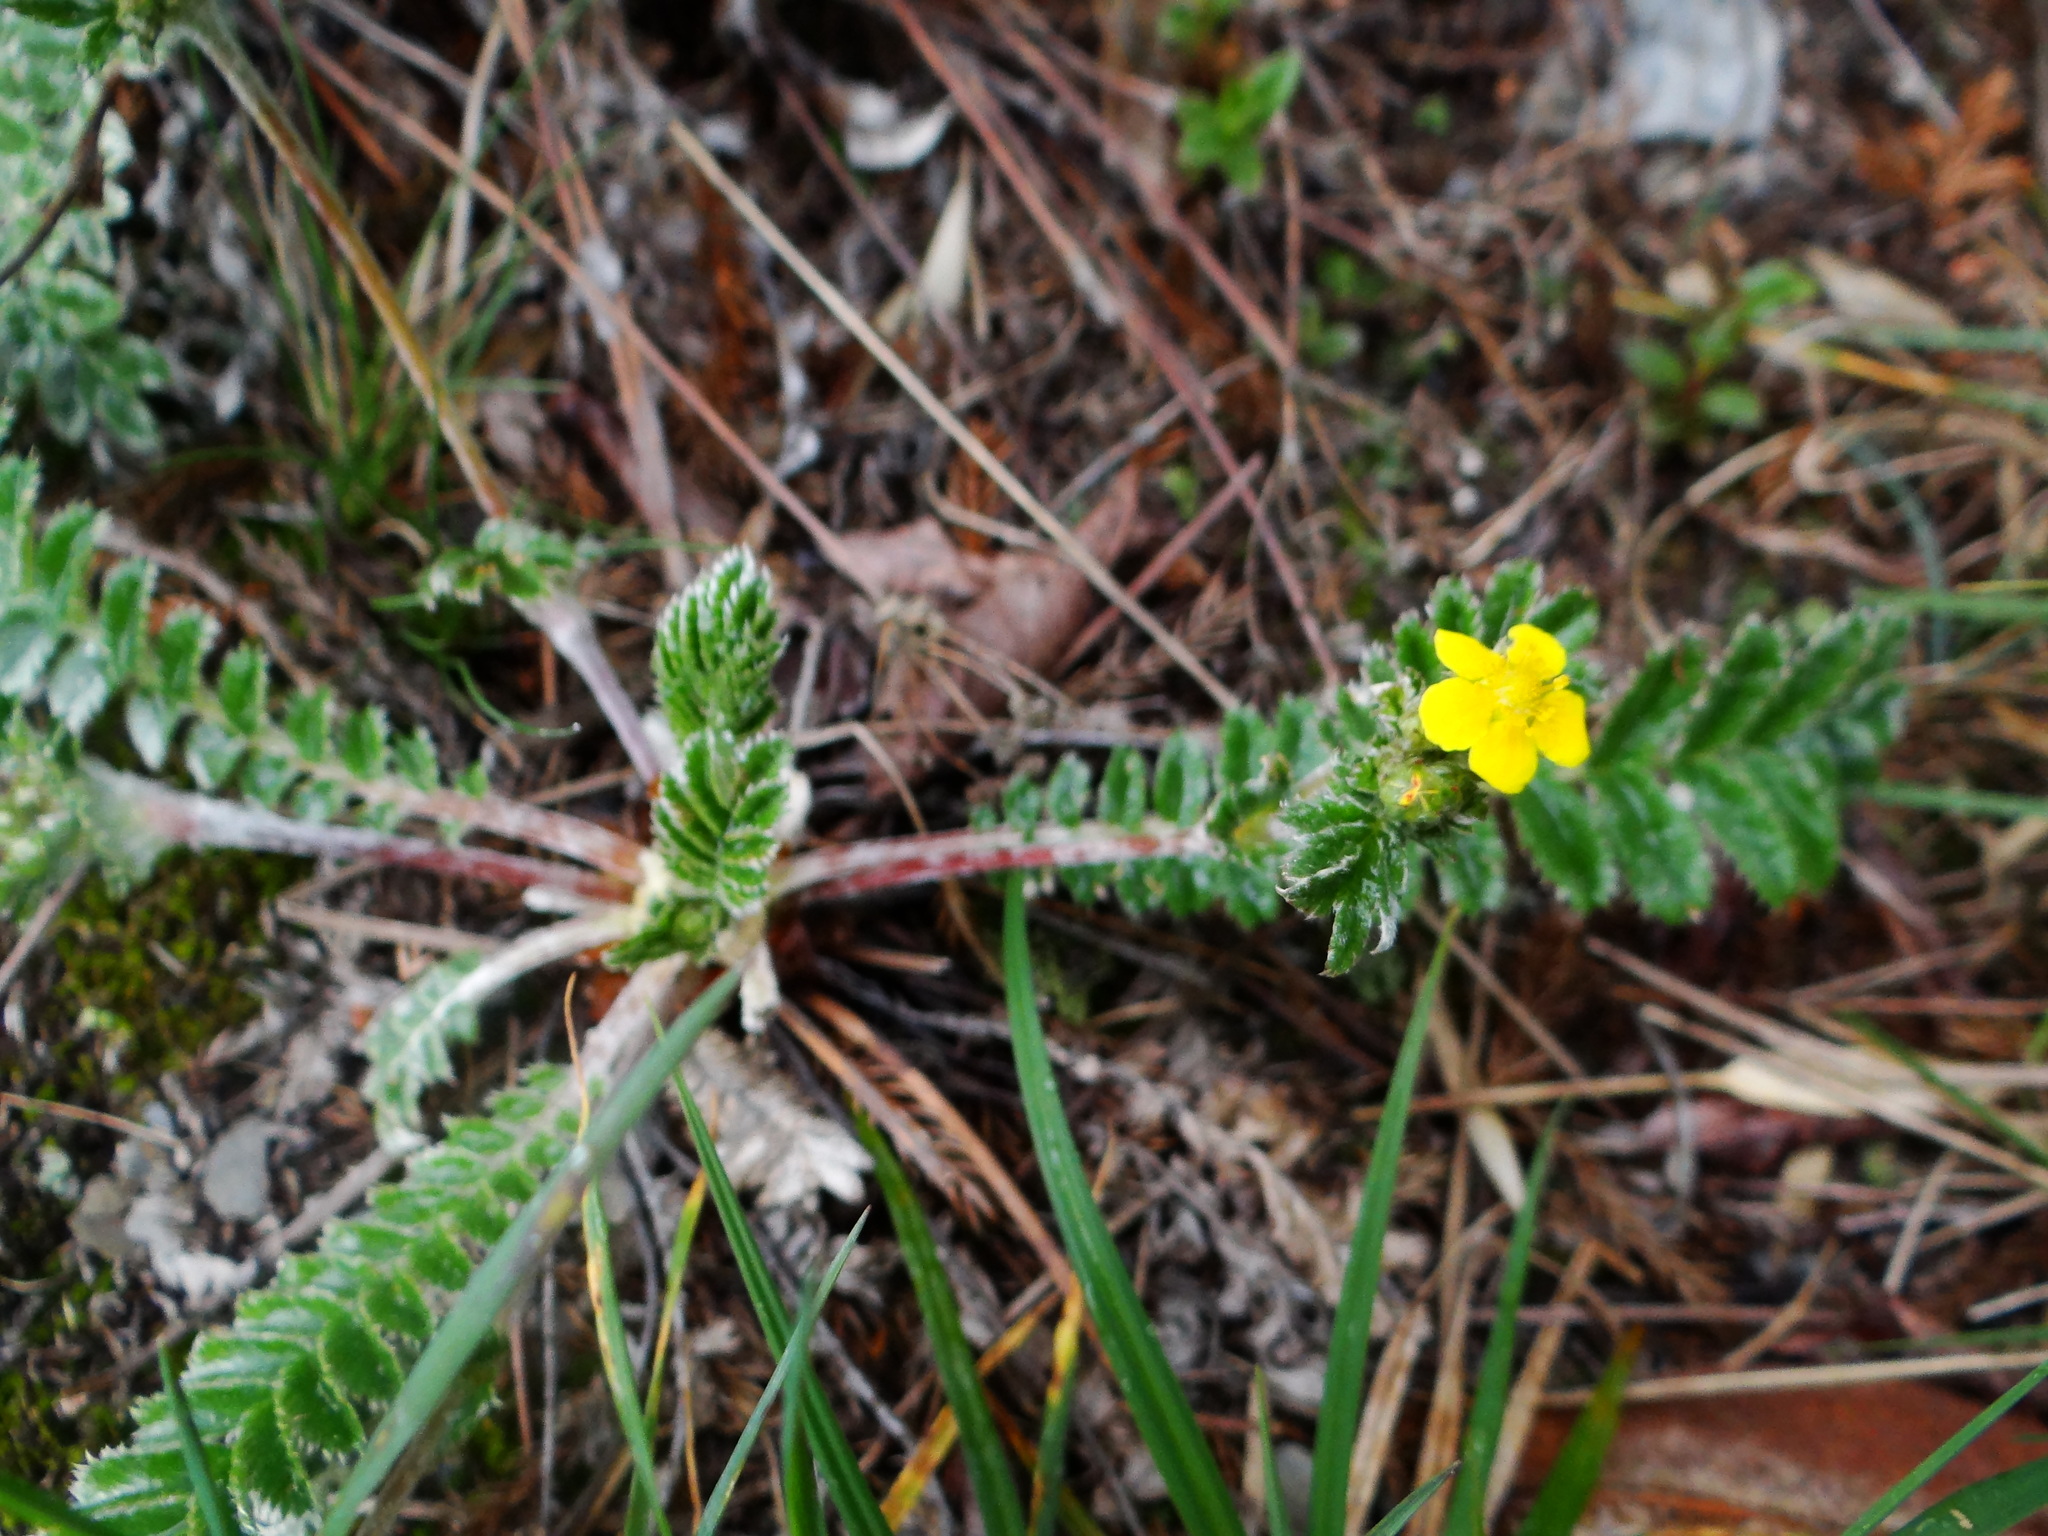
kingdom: Plantae
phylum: Tracheophyta
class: Magnoliopsida
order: Rosales
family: Rosaceae
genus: Argentina
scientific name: Argentina leuconota
